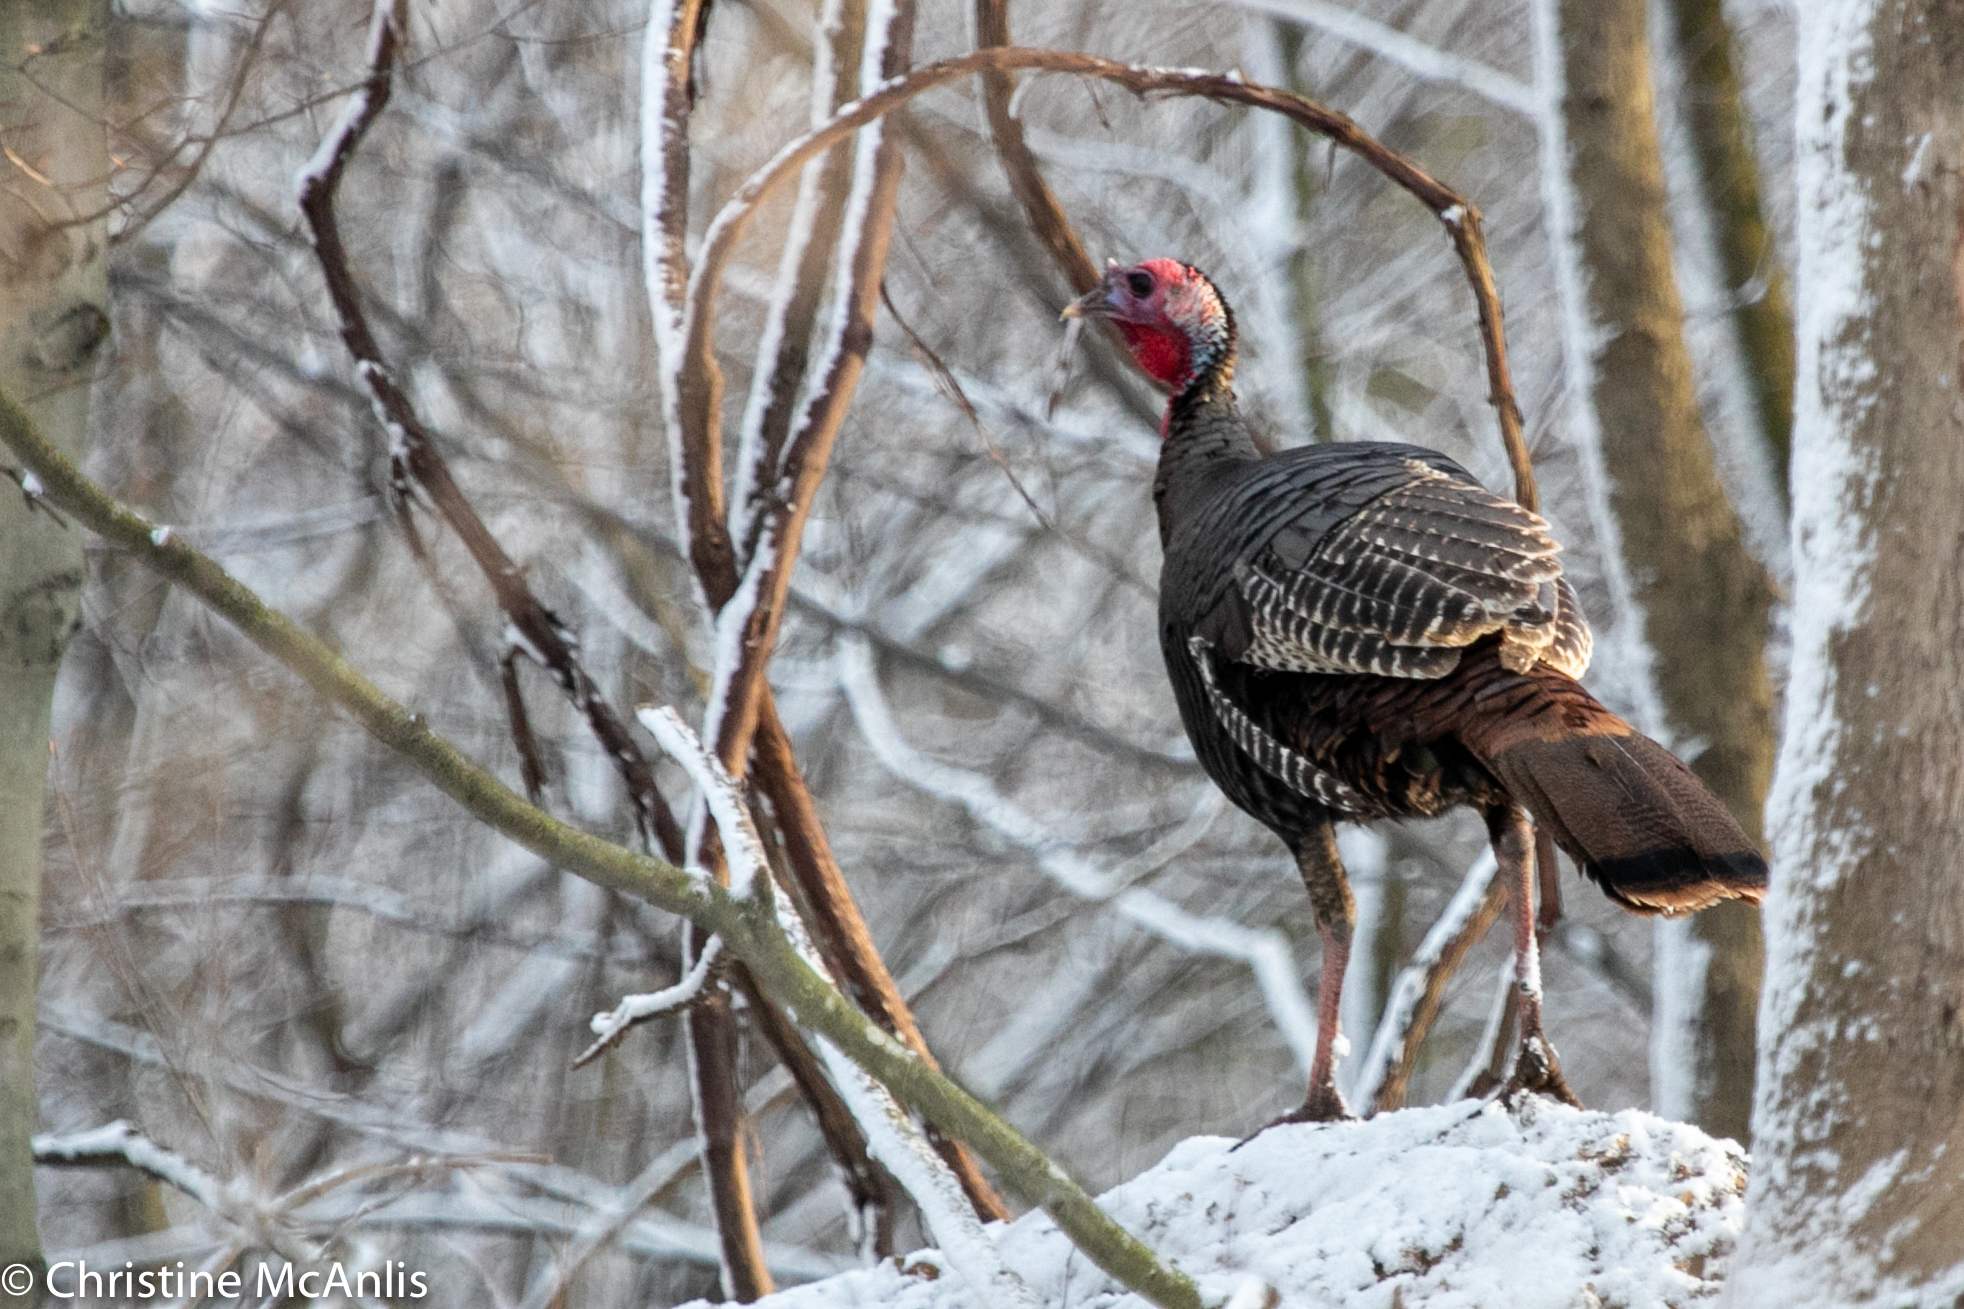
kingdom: Animalia
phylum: Chordata
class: Aves
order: Galliformes
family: Phasianidae
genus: Meleagris
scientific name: Meleagris gallopavo
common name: Wild turkey
